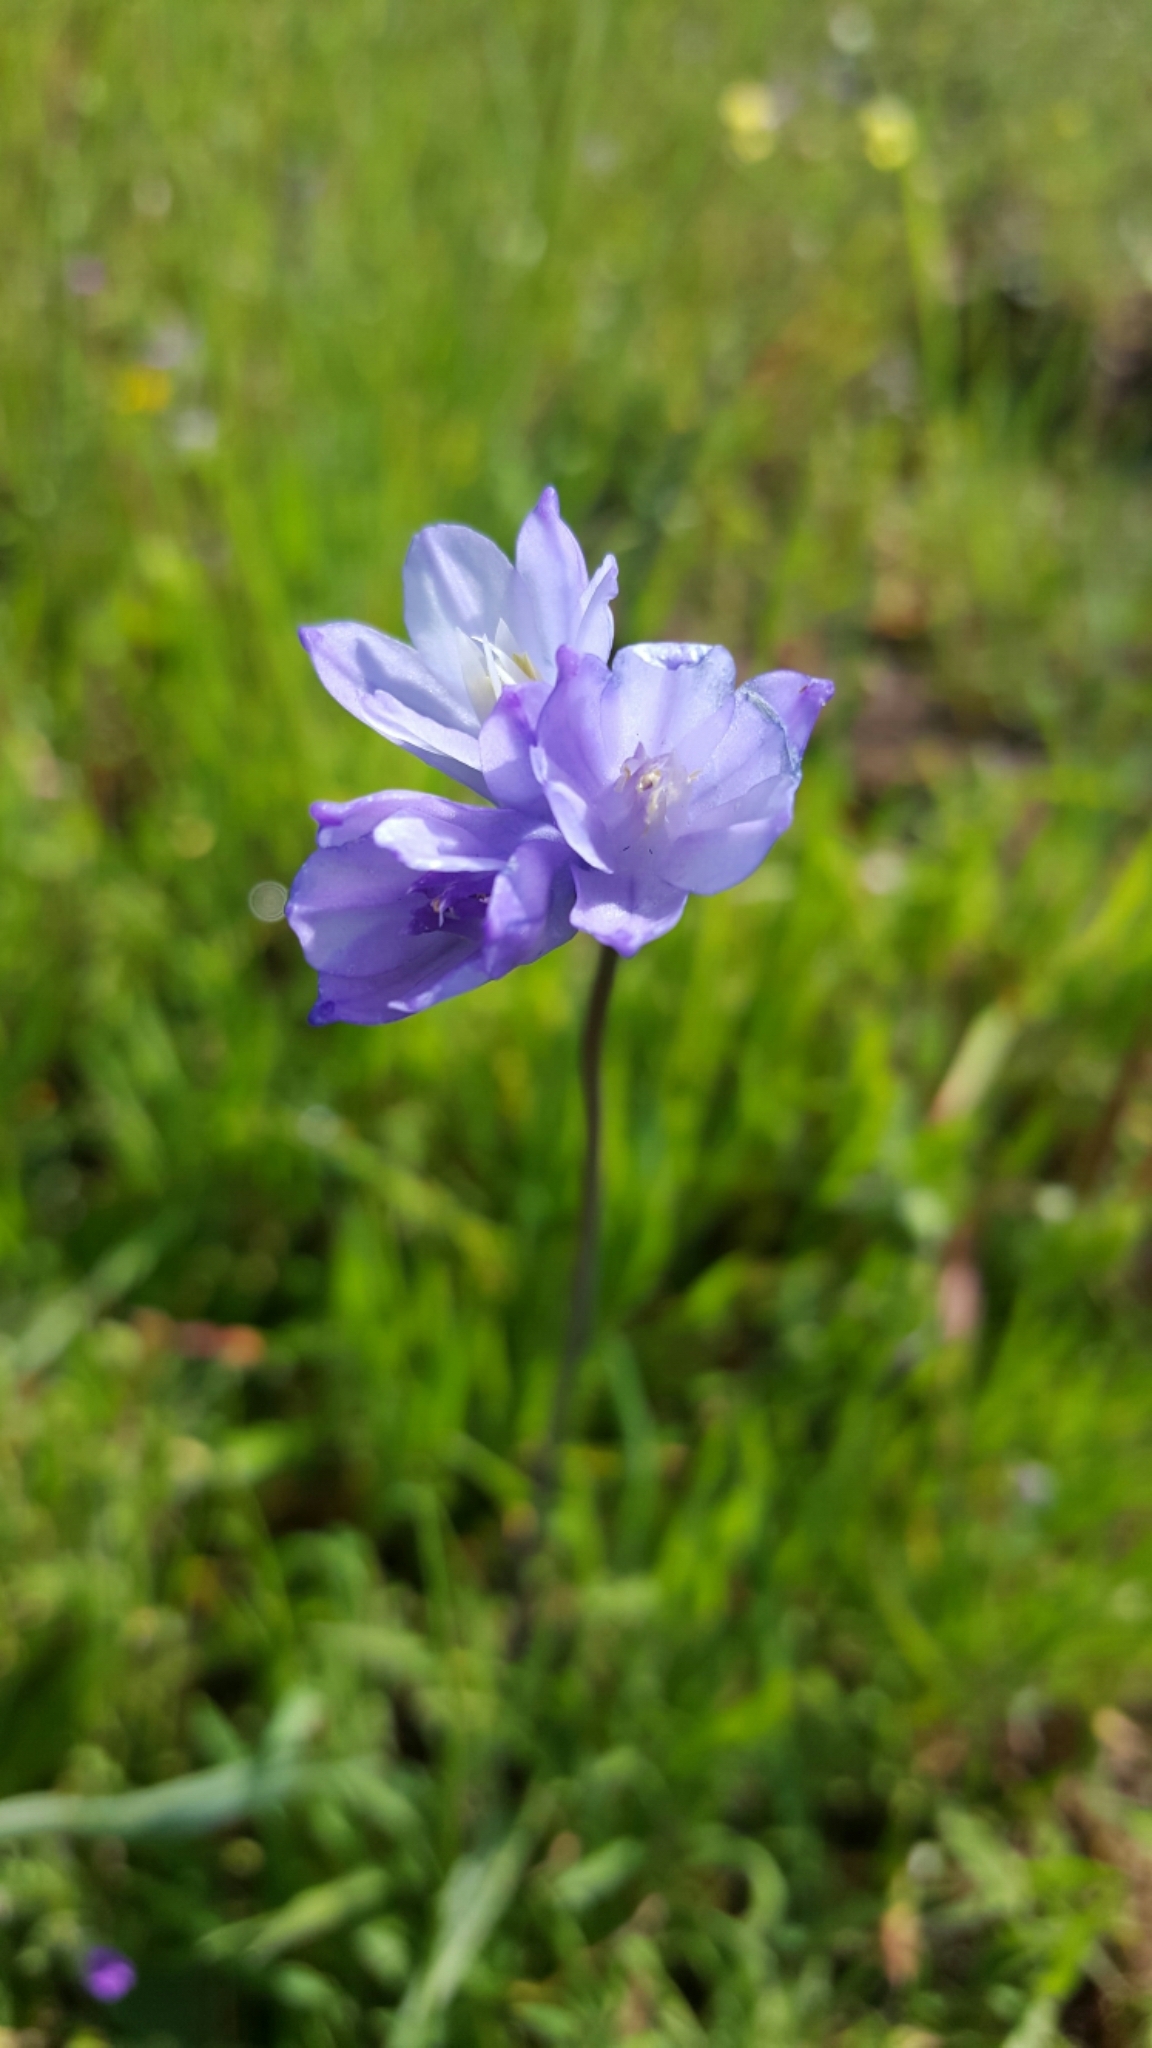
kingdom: Plantae
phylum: Tracheophyta
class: Liliopsida
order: Asparagales
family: Asparagaceae
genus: Dipterostemon
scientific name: Dipterostemon capitatus
